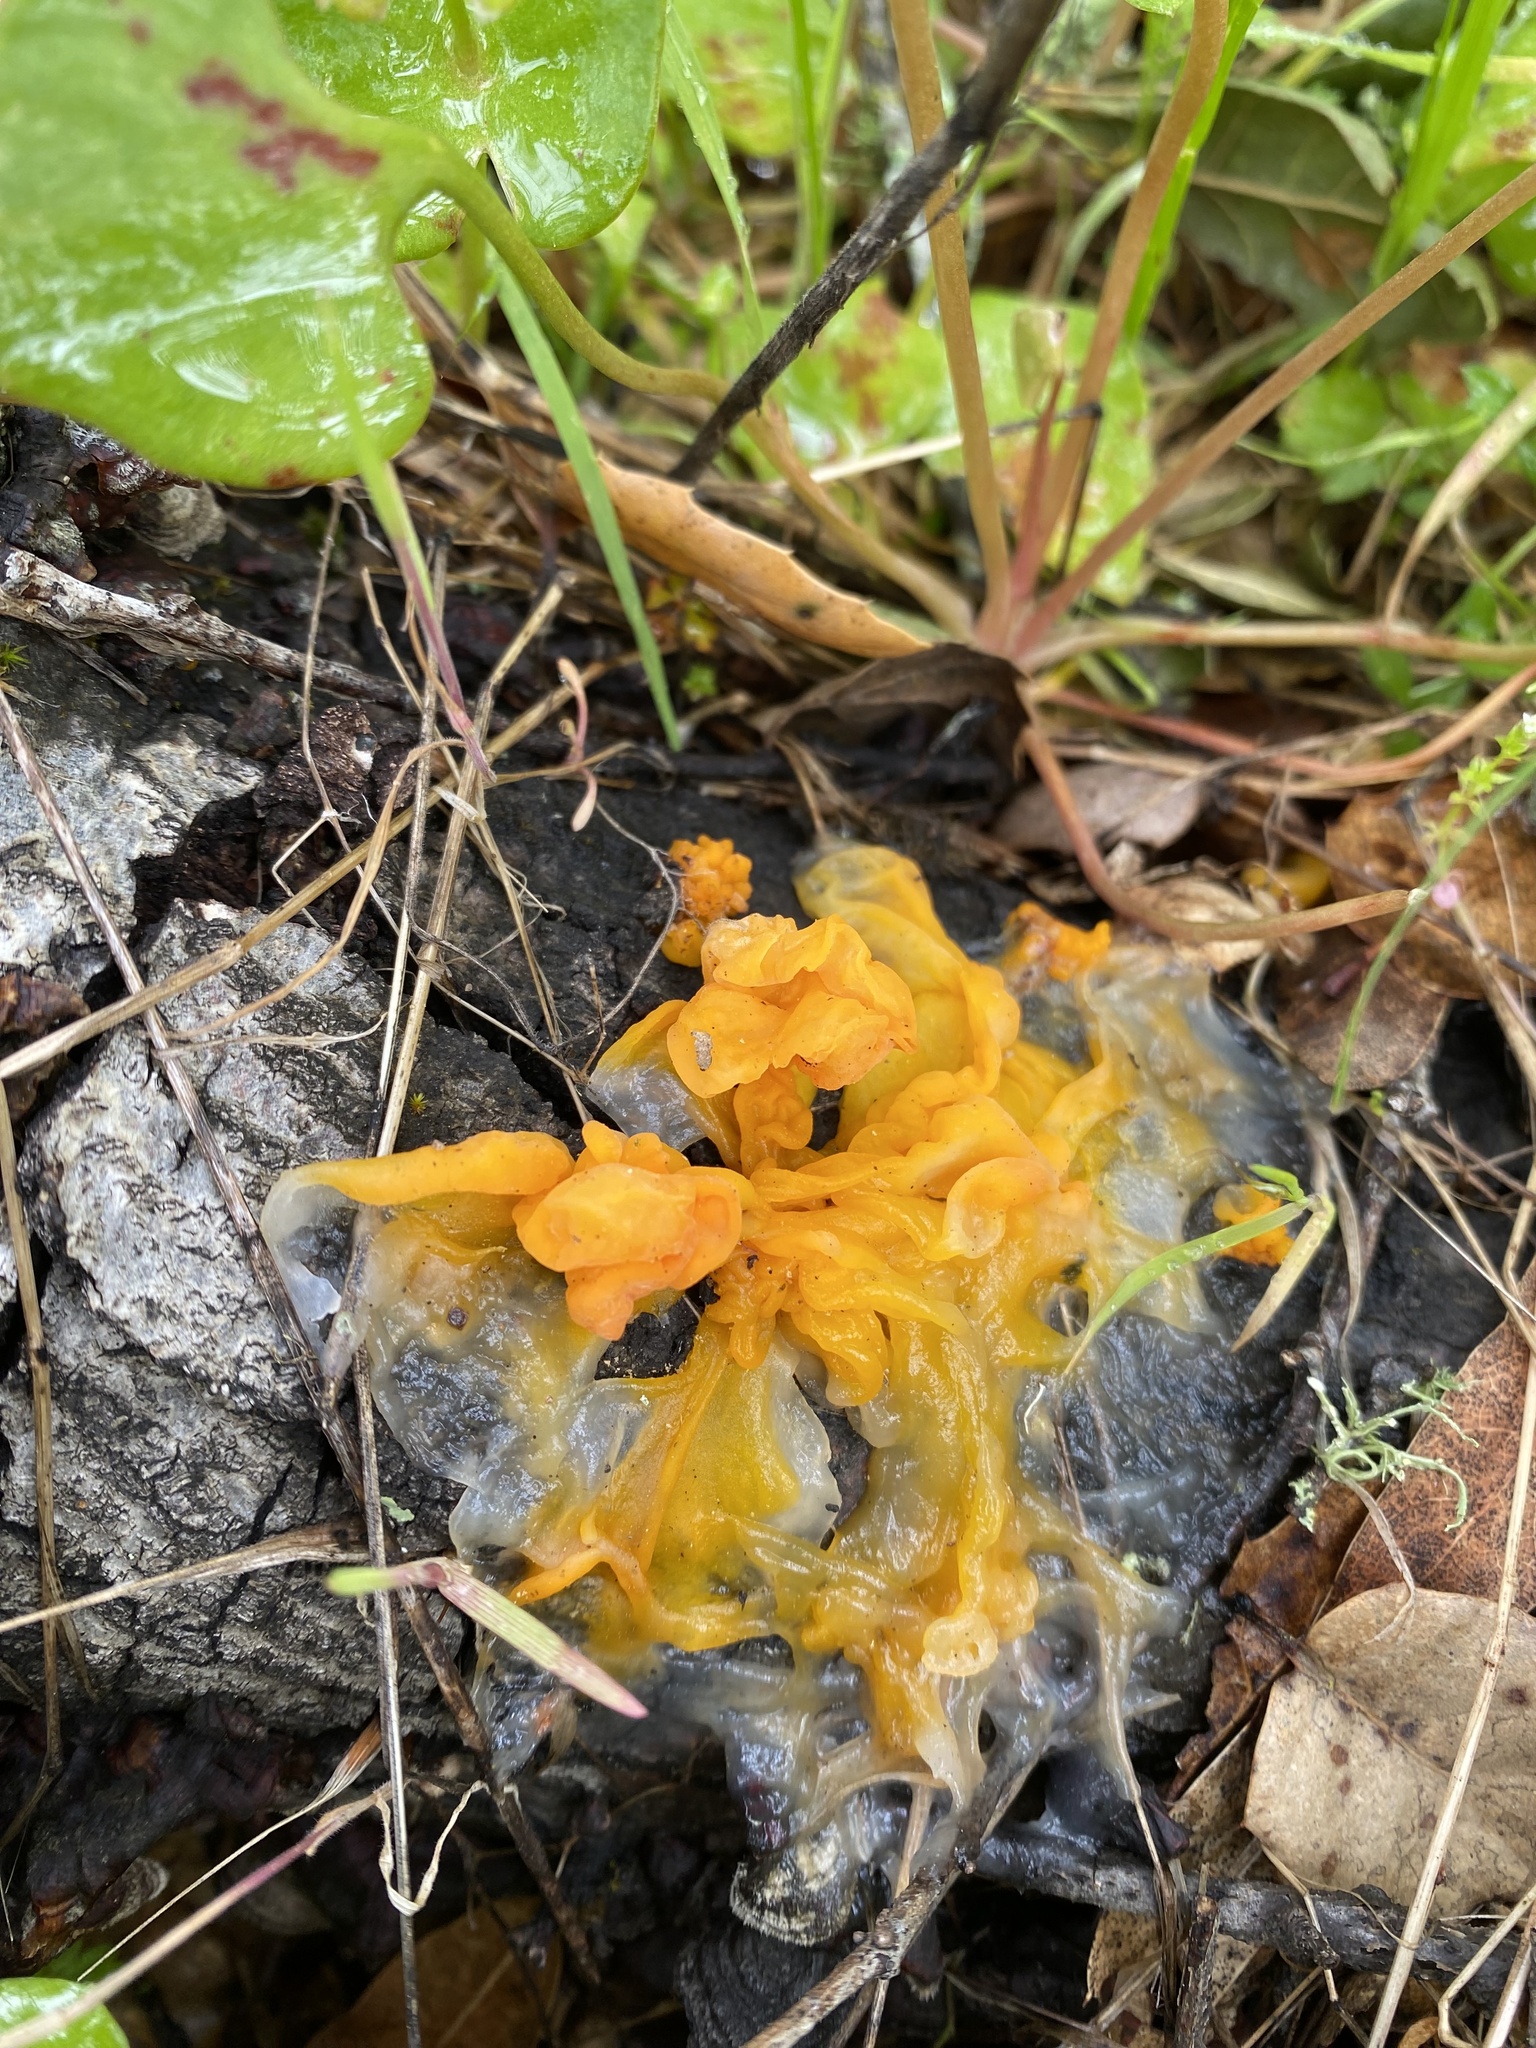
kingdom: Fungi
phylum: Basidiomycota
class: Tremellomycetes
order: Tremellales
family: Naemateliaceae
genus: Naematelia
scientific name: Naematelia aurantia
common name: Golden ear
